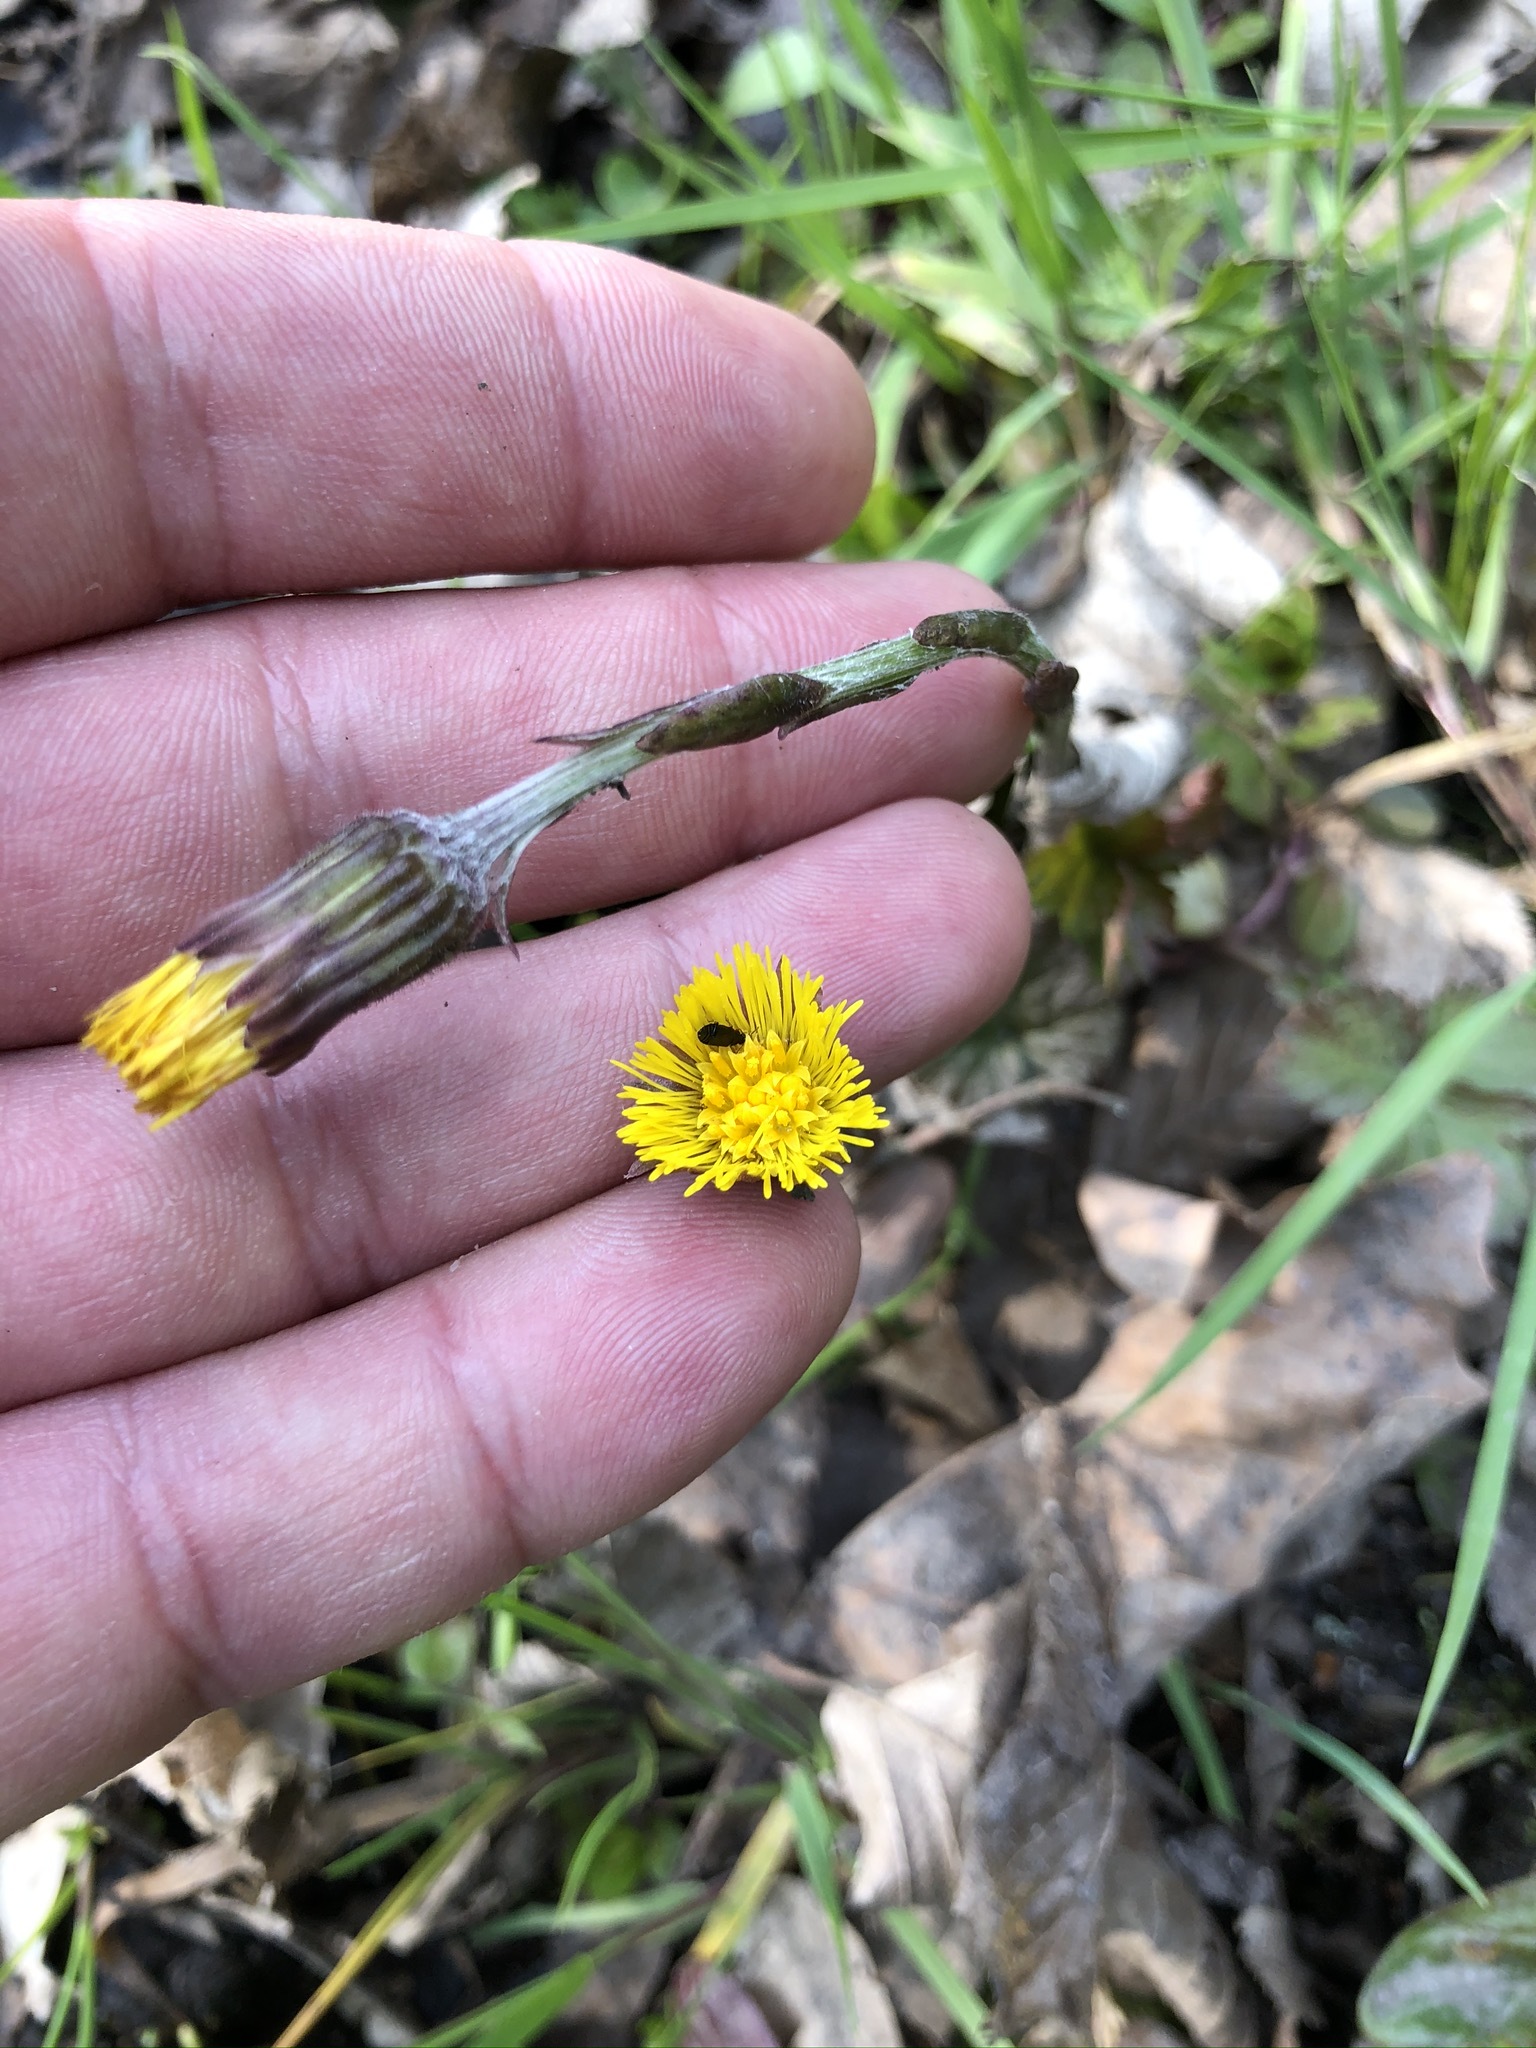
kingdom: Plantae
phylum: Tracheophyta
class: Magnoliopsida
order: Asterales
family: Asteraceae
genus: Tussilago
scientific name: Tussilago farfara
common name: Coltsfoot
